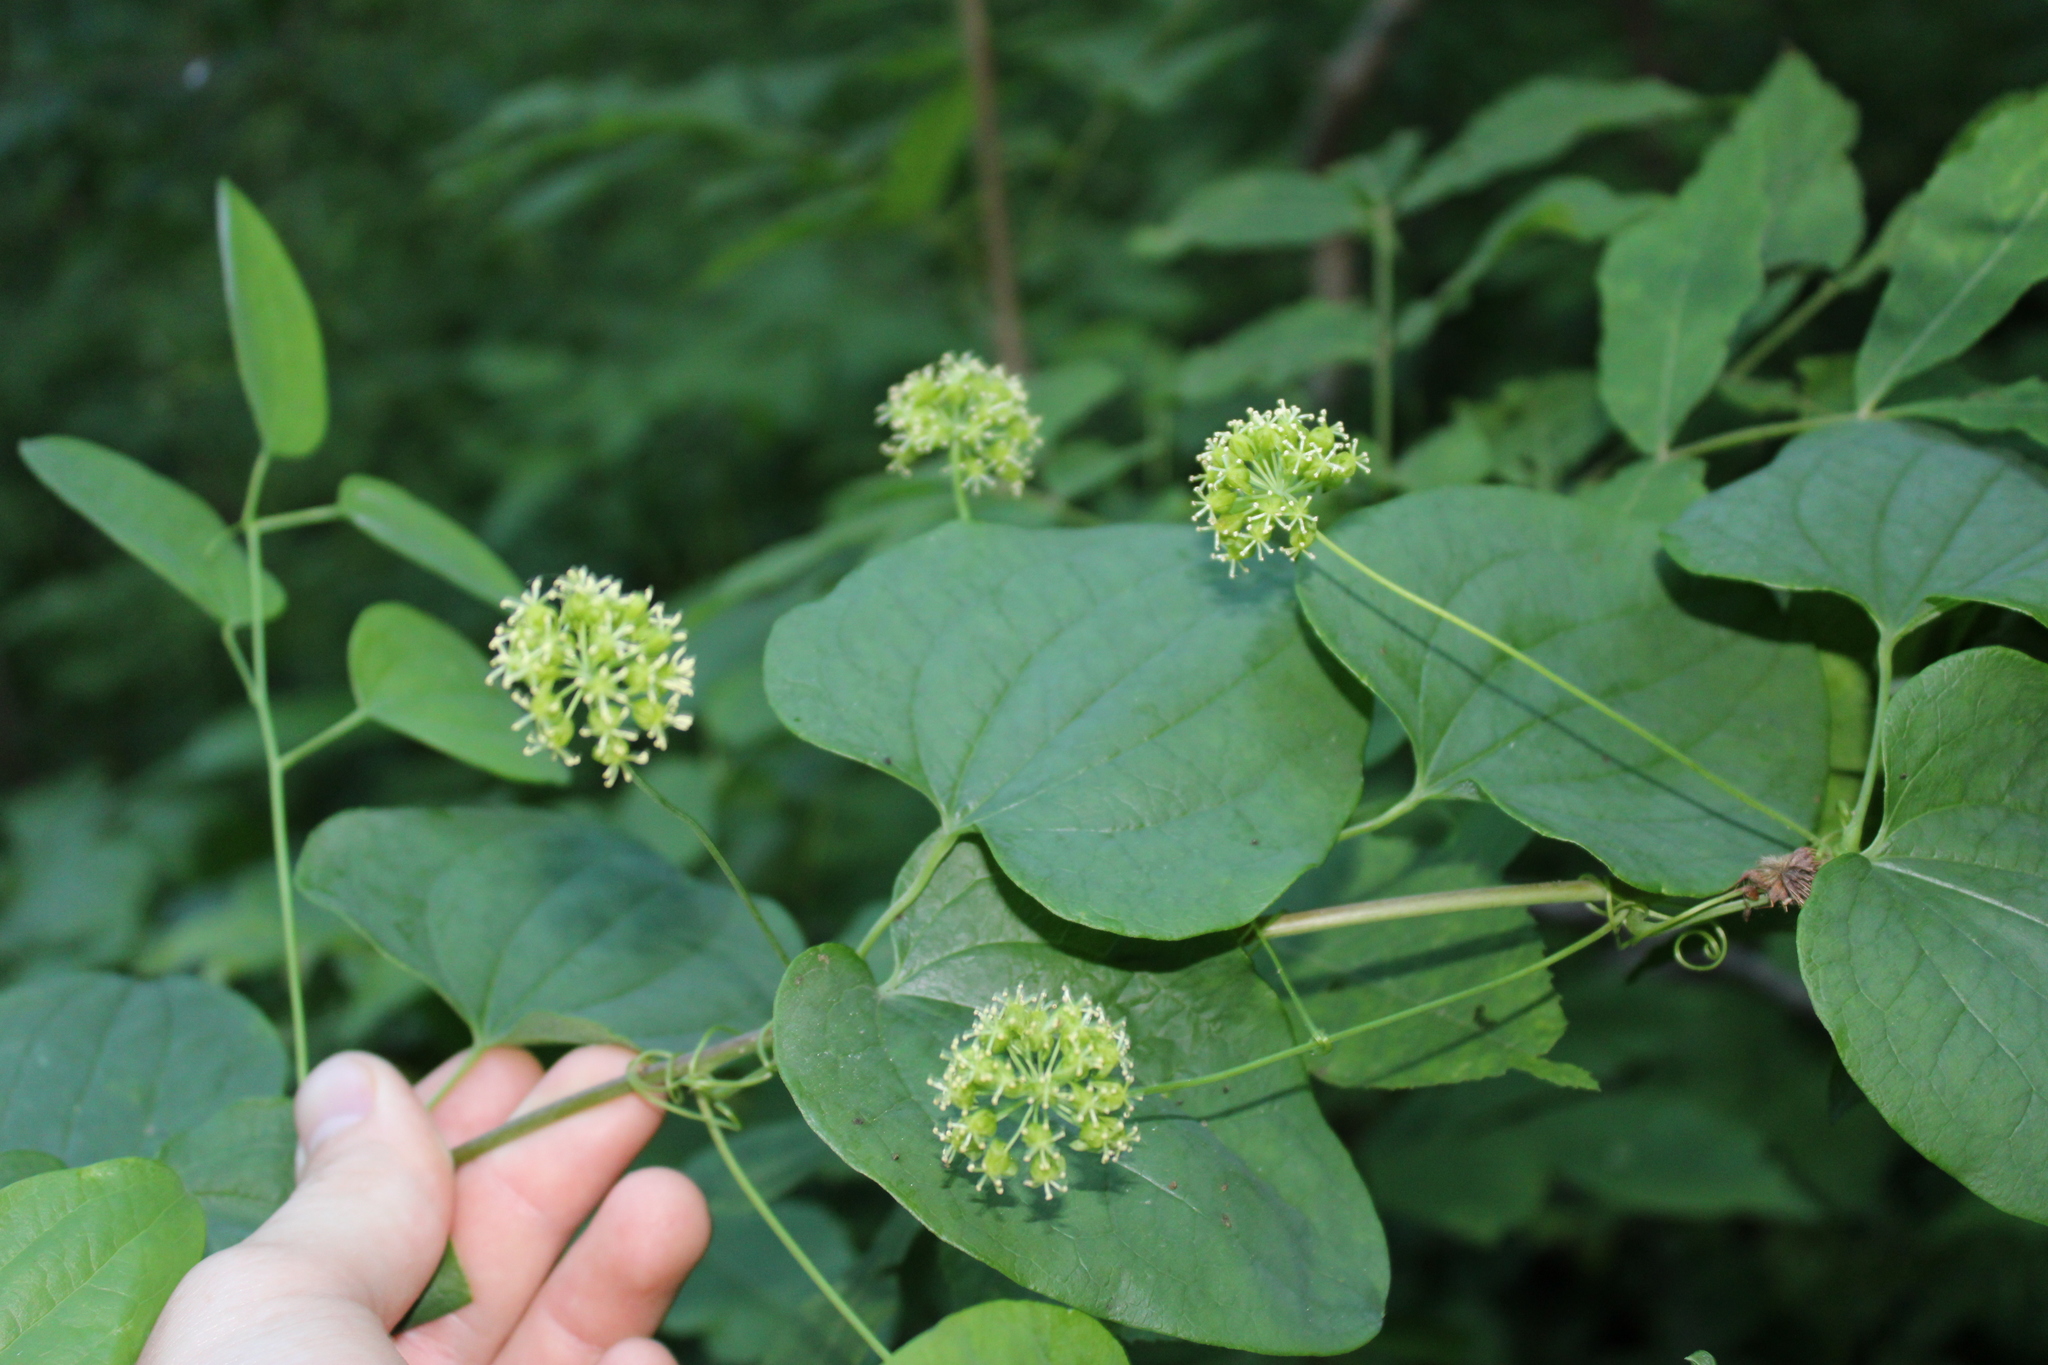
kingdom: Plantae
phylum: Tracheophyta
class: Liliopsida
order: Liliales
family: Smilacaceae
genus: Smilax
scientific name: Smilax lasioneura
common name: Blue ridge carrionflower
